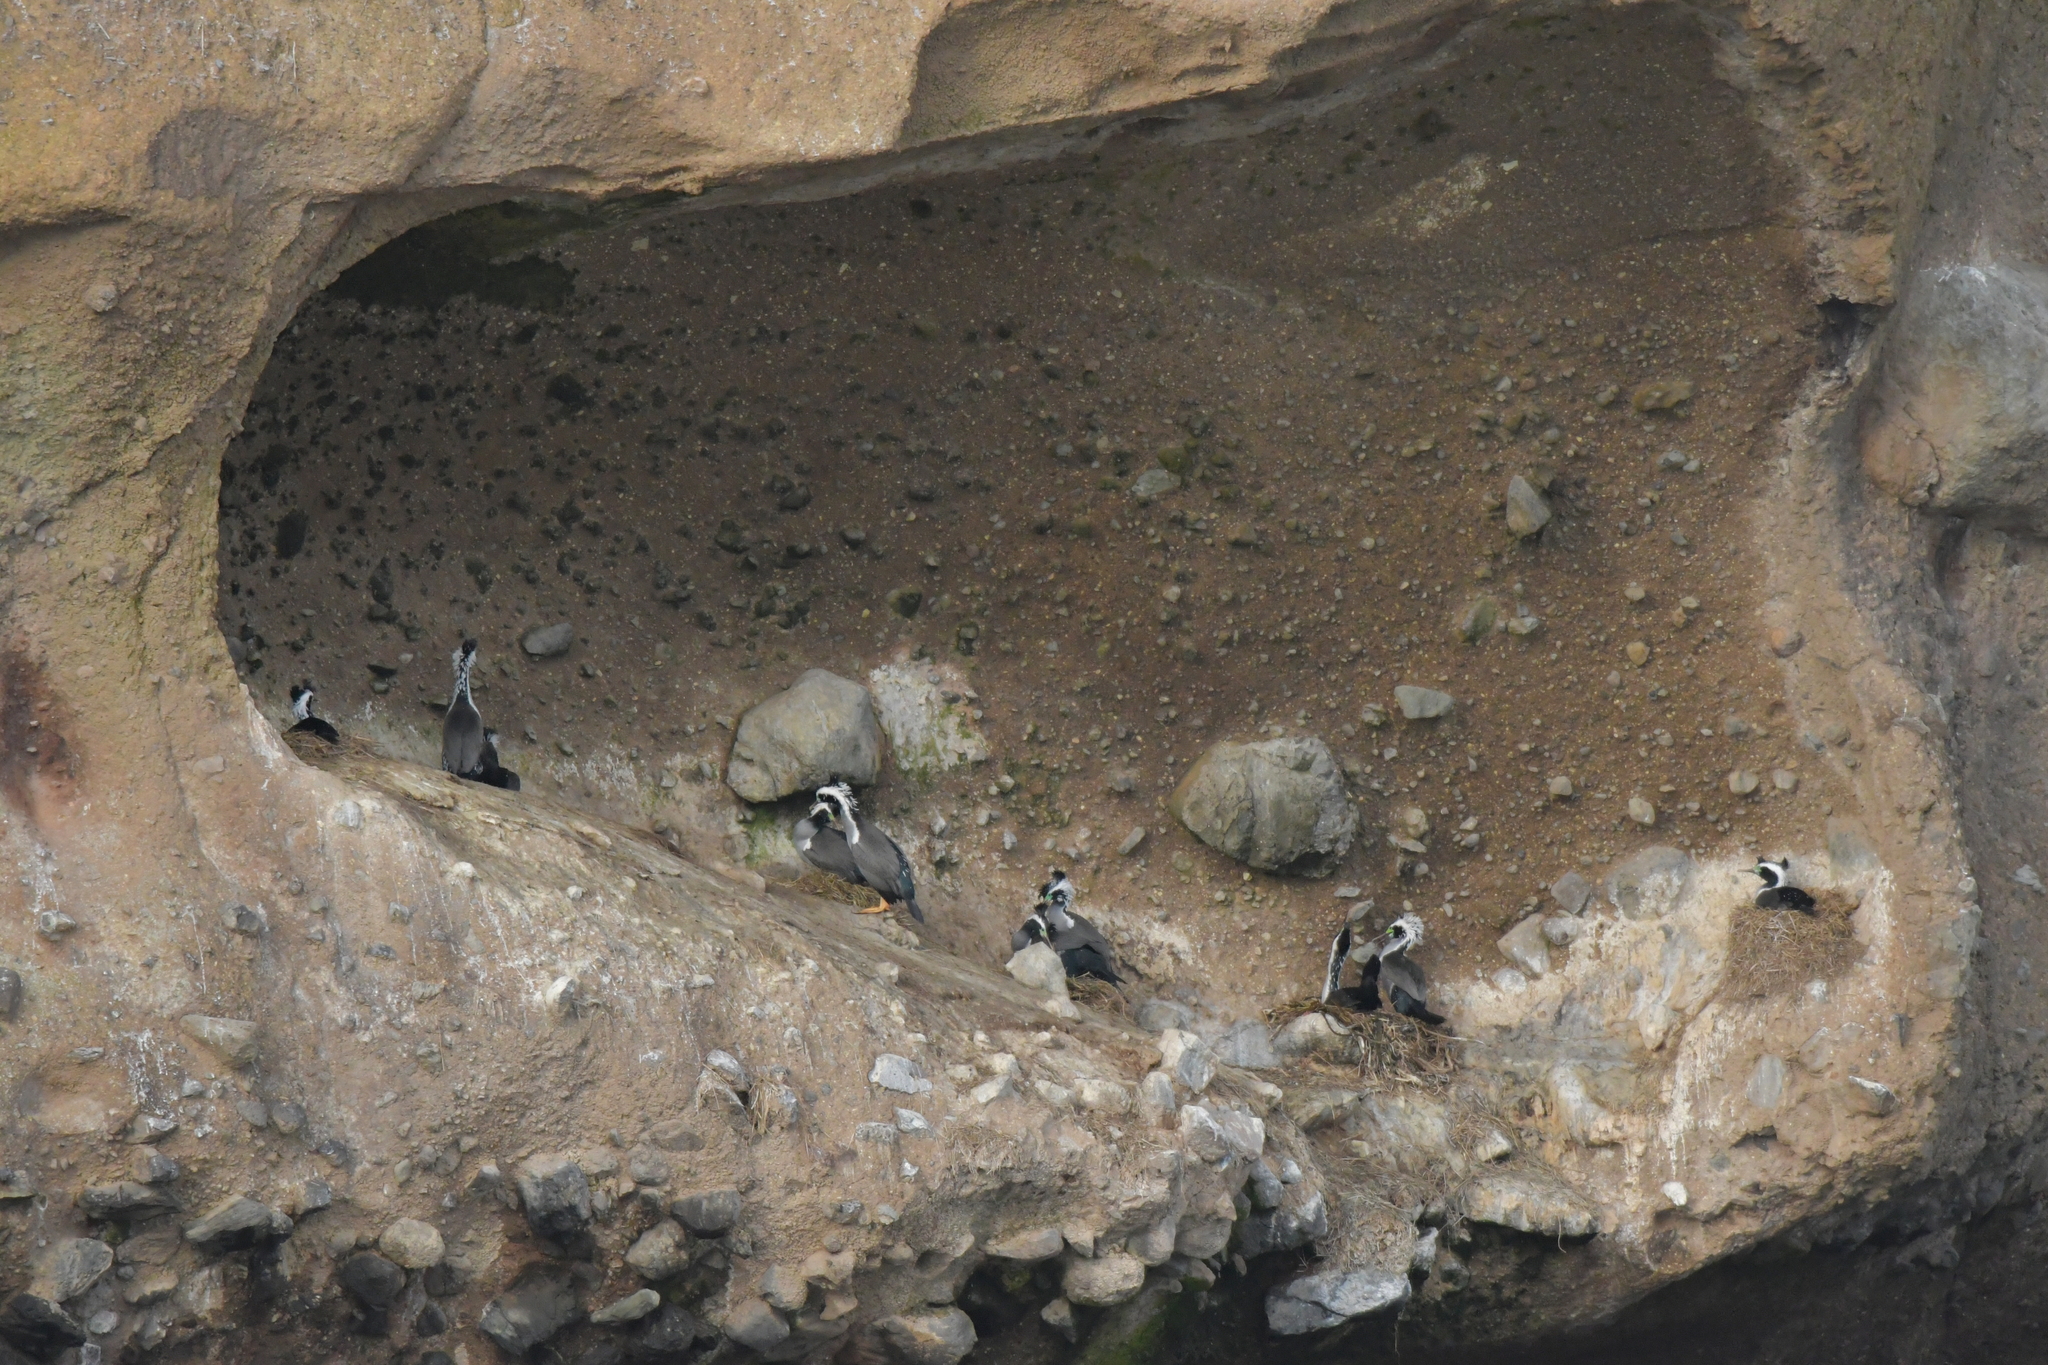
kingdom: Animalia
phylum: Chordata
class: Aves
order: Suliformes
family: Phalacrocoracidae
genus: Phalacrocorax
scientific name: Phalacrocorax punctatus
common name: Spotted shag
